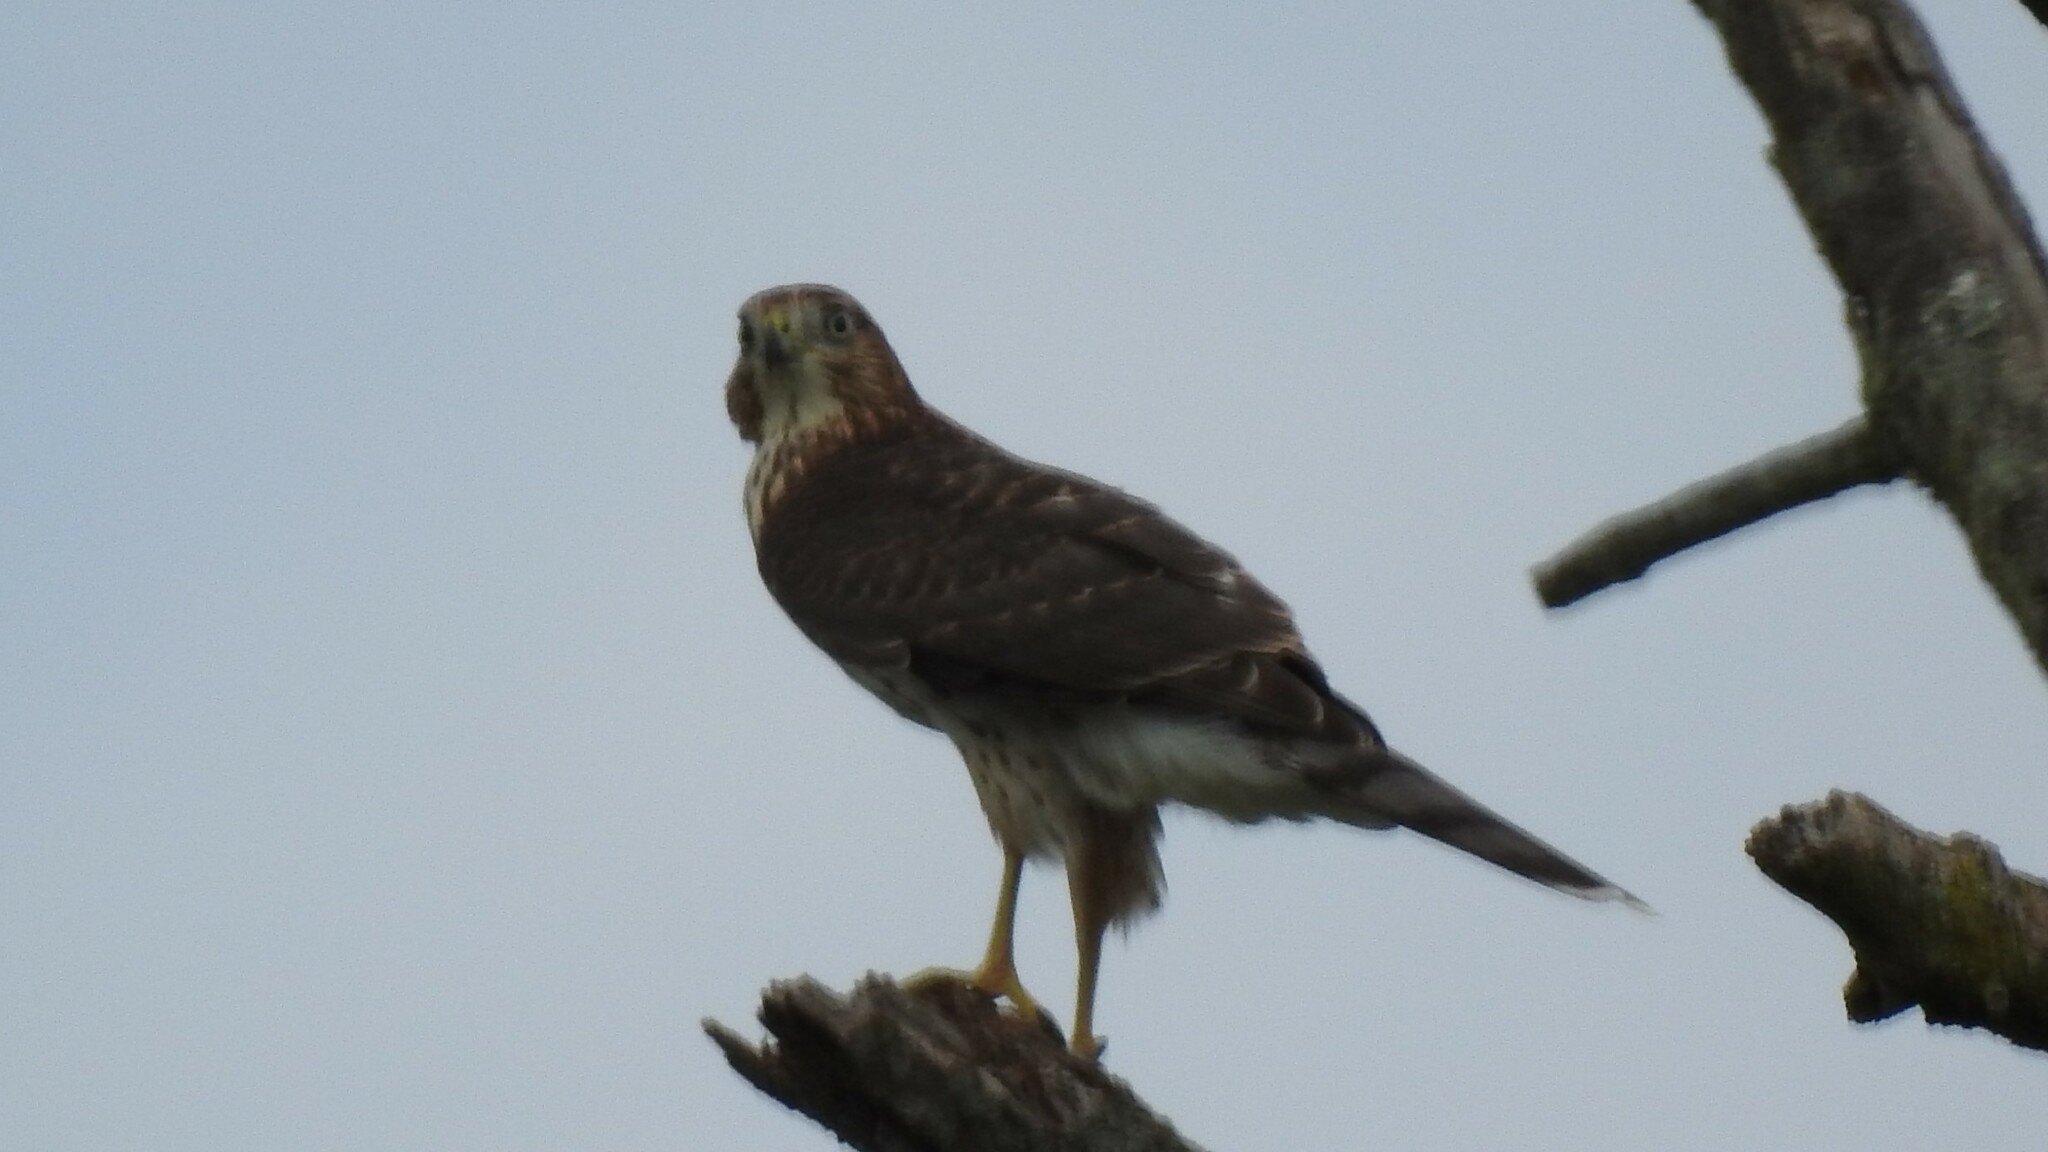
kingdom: Animalia
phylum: Chordata
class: Aves
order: Accipitriformes
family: Accipitridae
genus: Accipiter
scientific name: Accipiter cooperii
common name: Cooper's hawk
